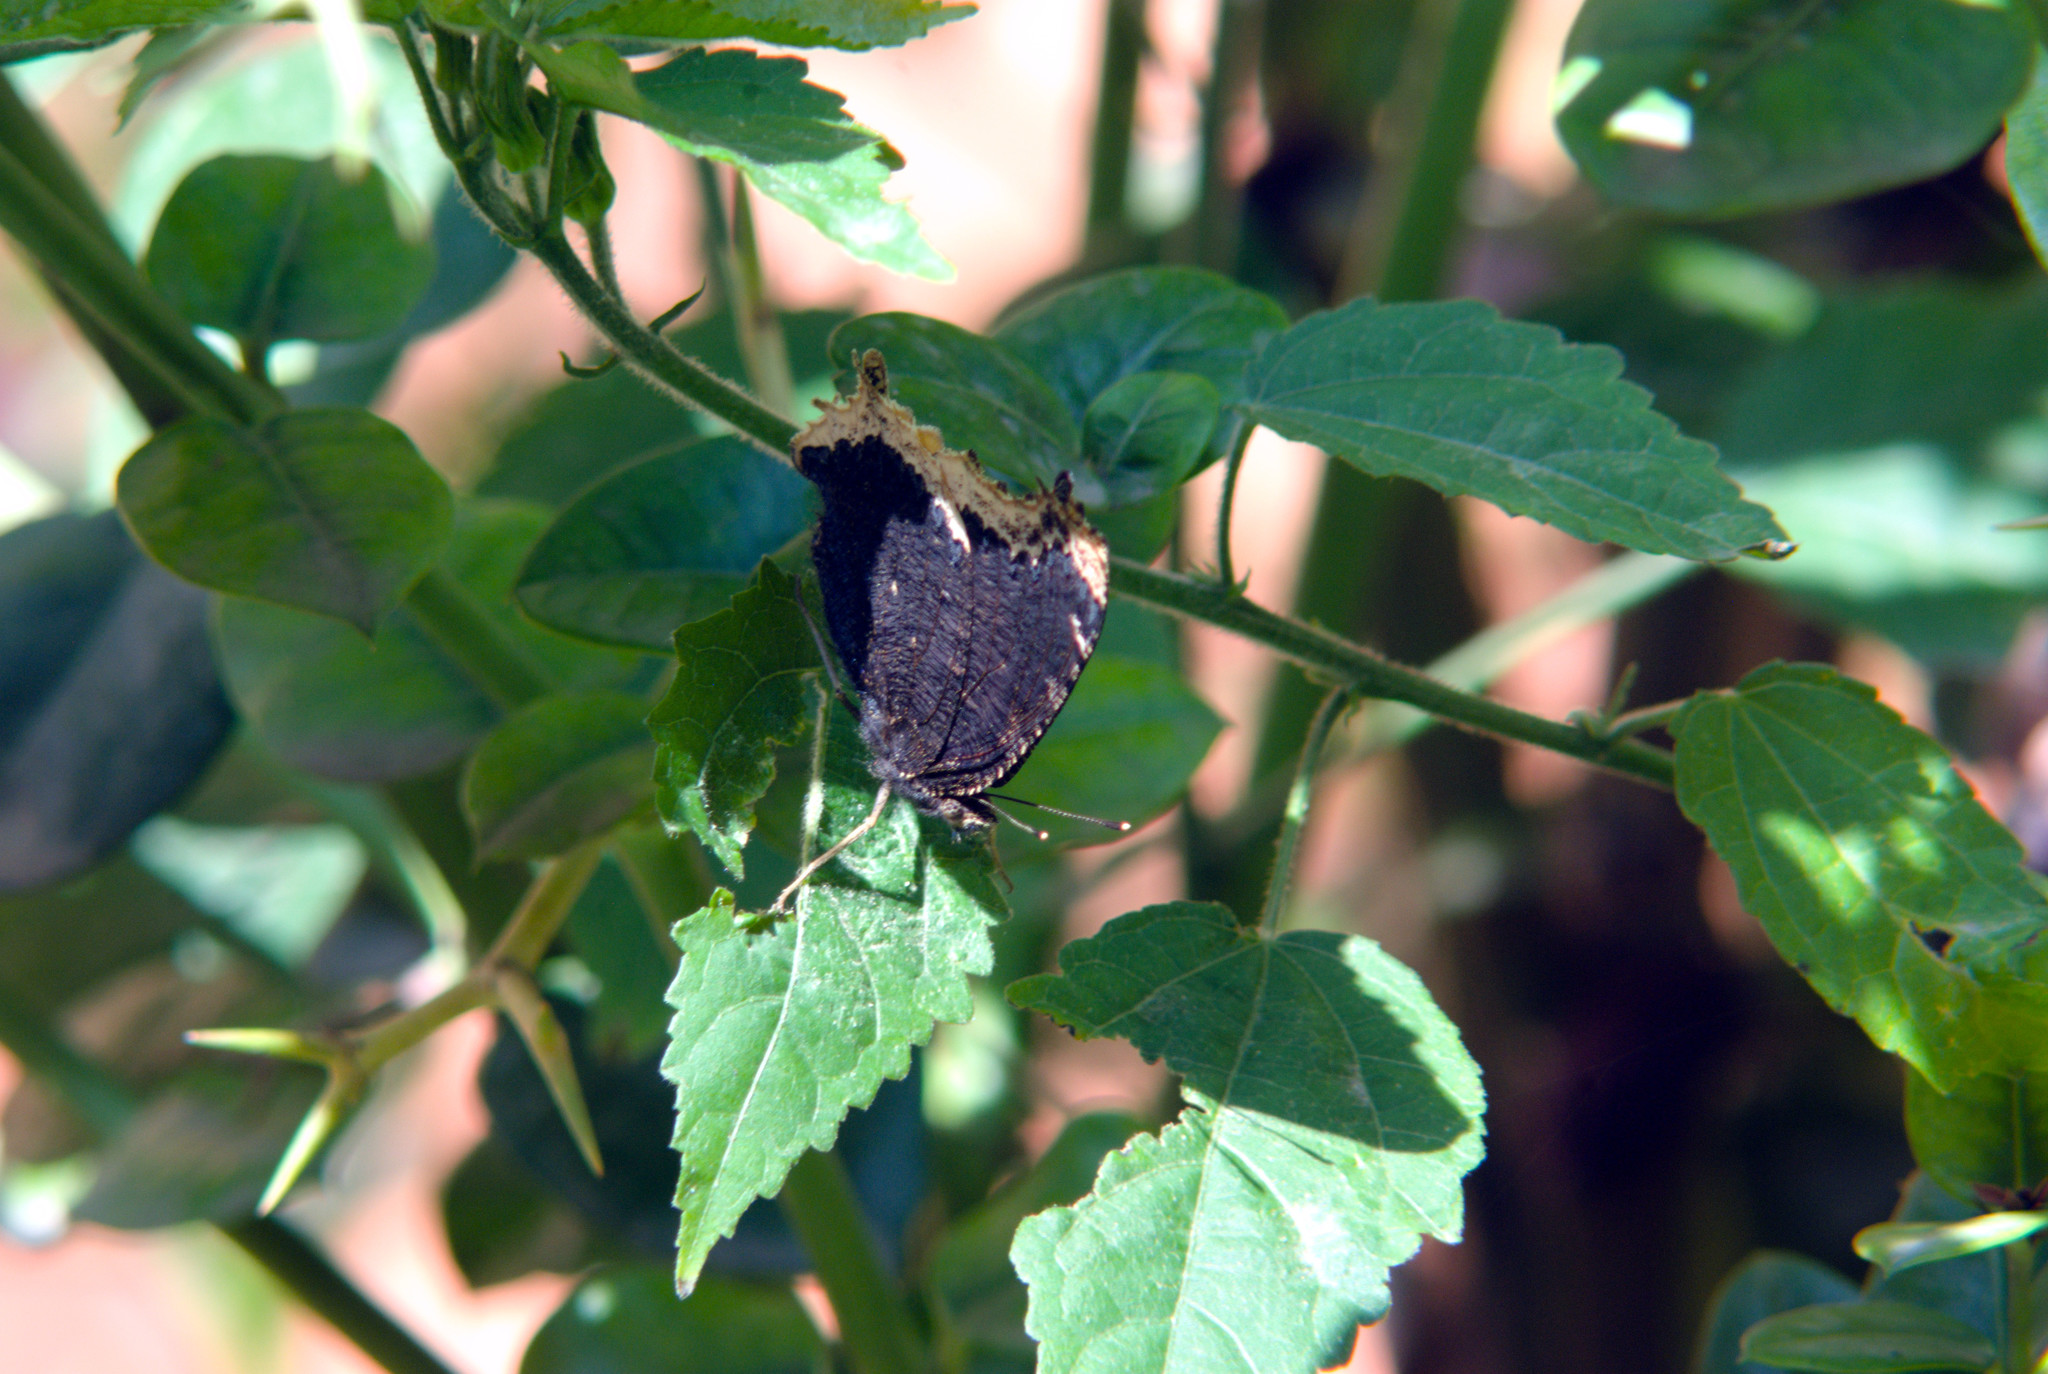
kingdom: Animalia
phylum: Arthropoda
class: Insecta
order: Lepidoptera
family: Nymphalidae
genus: Nymphalis
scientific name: Nymphalis antiopa
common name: Camberwell beauty
